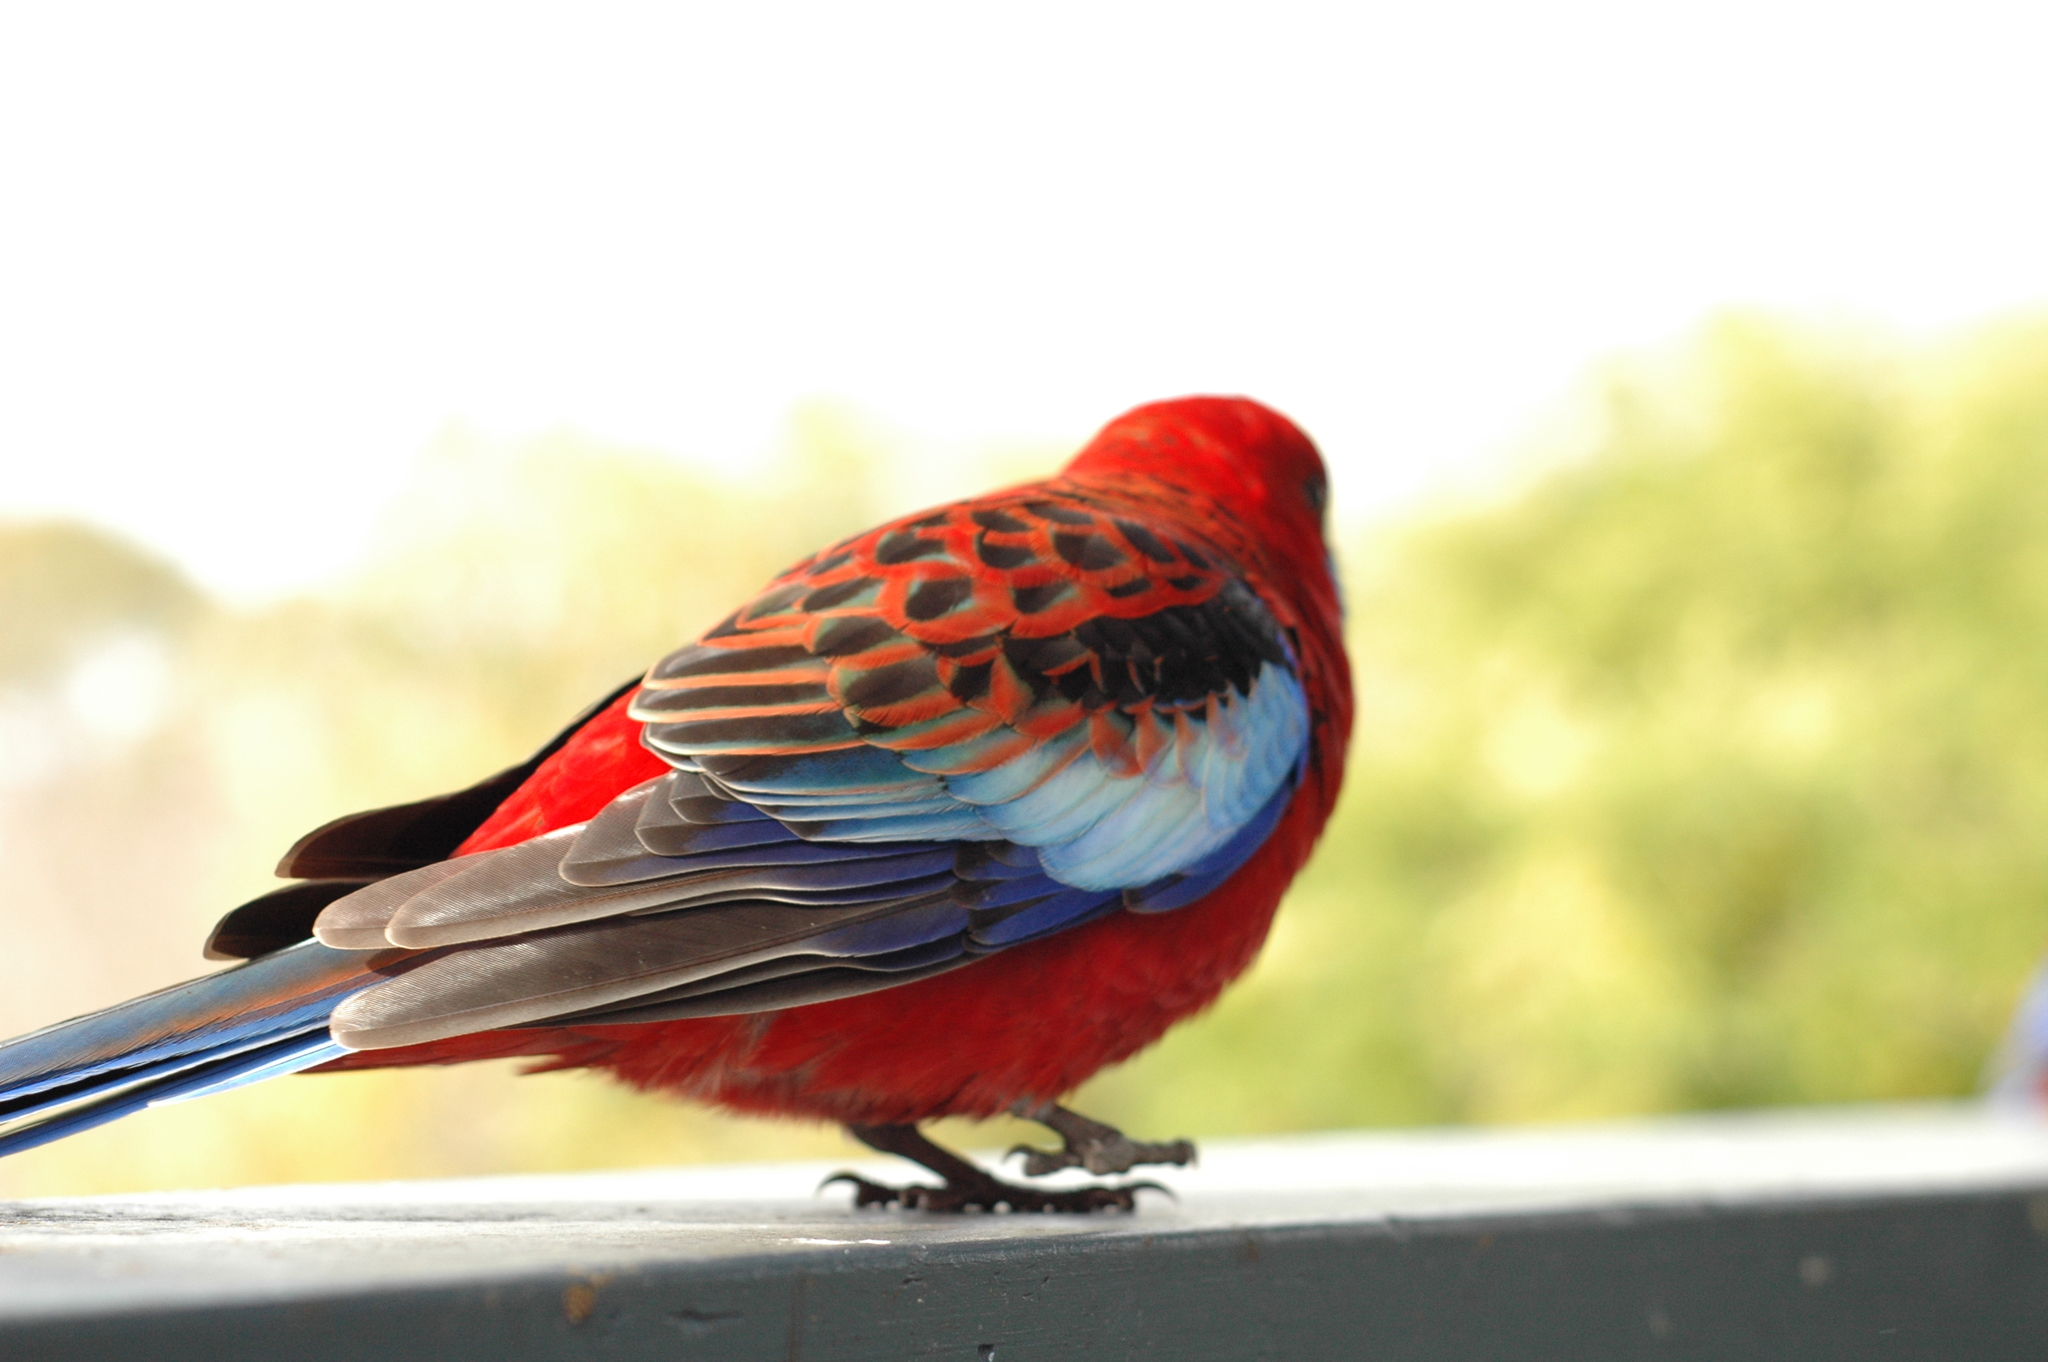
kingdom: Animalia
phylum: Chordata
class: Aves
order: Psittaciformes
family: Psittacidae
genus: Platycercus
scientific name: Platycercus elegans
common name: Crimson rosella
